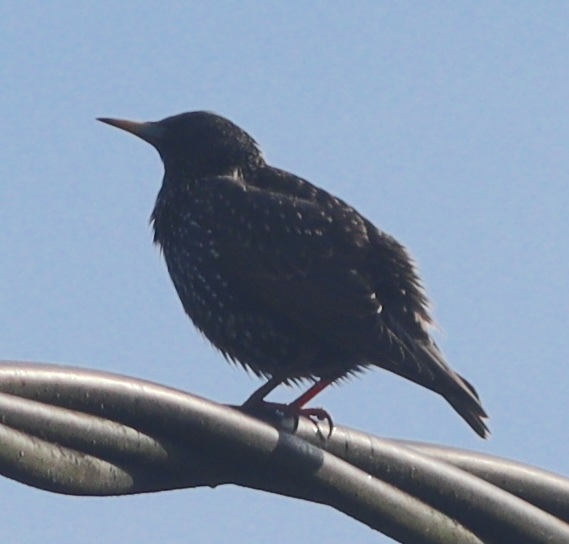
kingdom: Animalia
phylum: Chordata
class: Aves
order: Passeriformes
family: Sturnidae
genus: Sturnus
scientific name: Sturnus vulgaris
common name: Common starling
